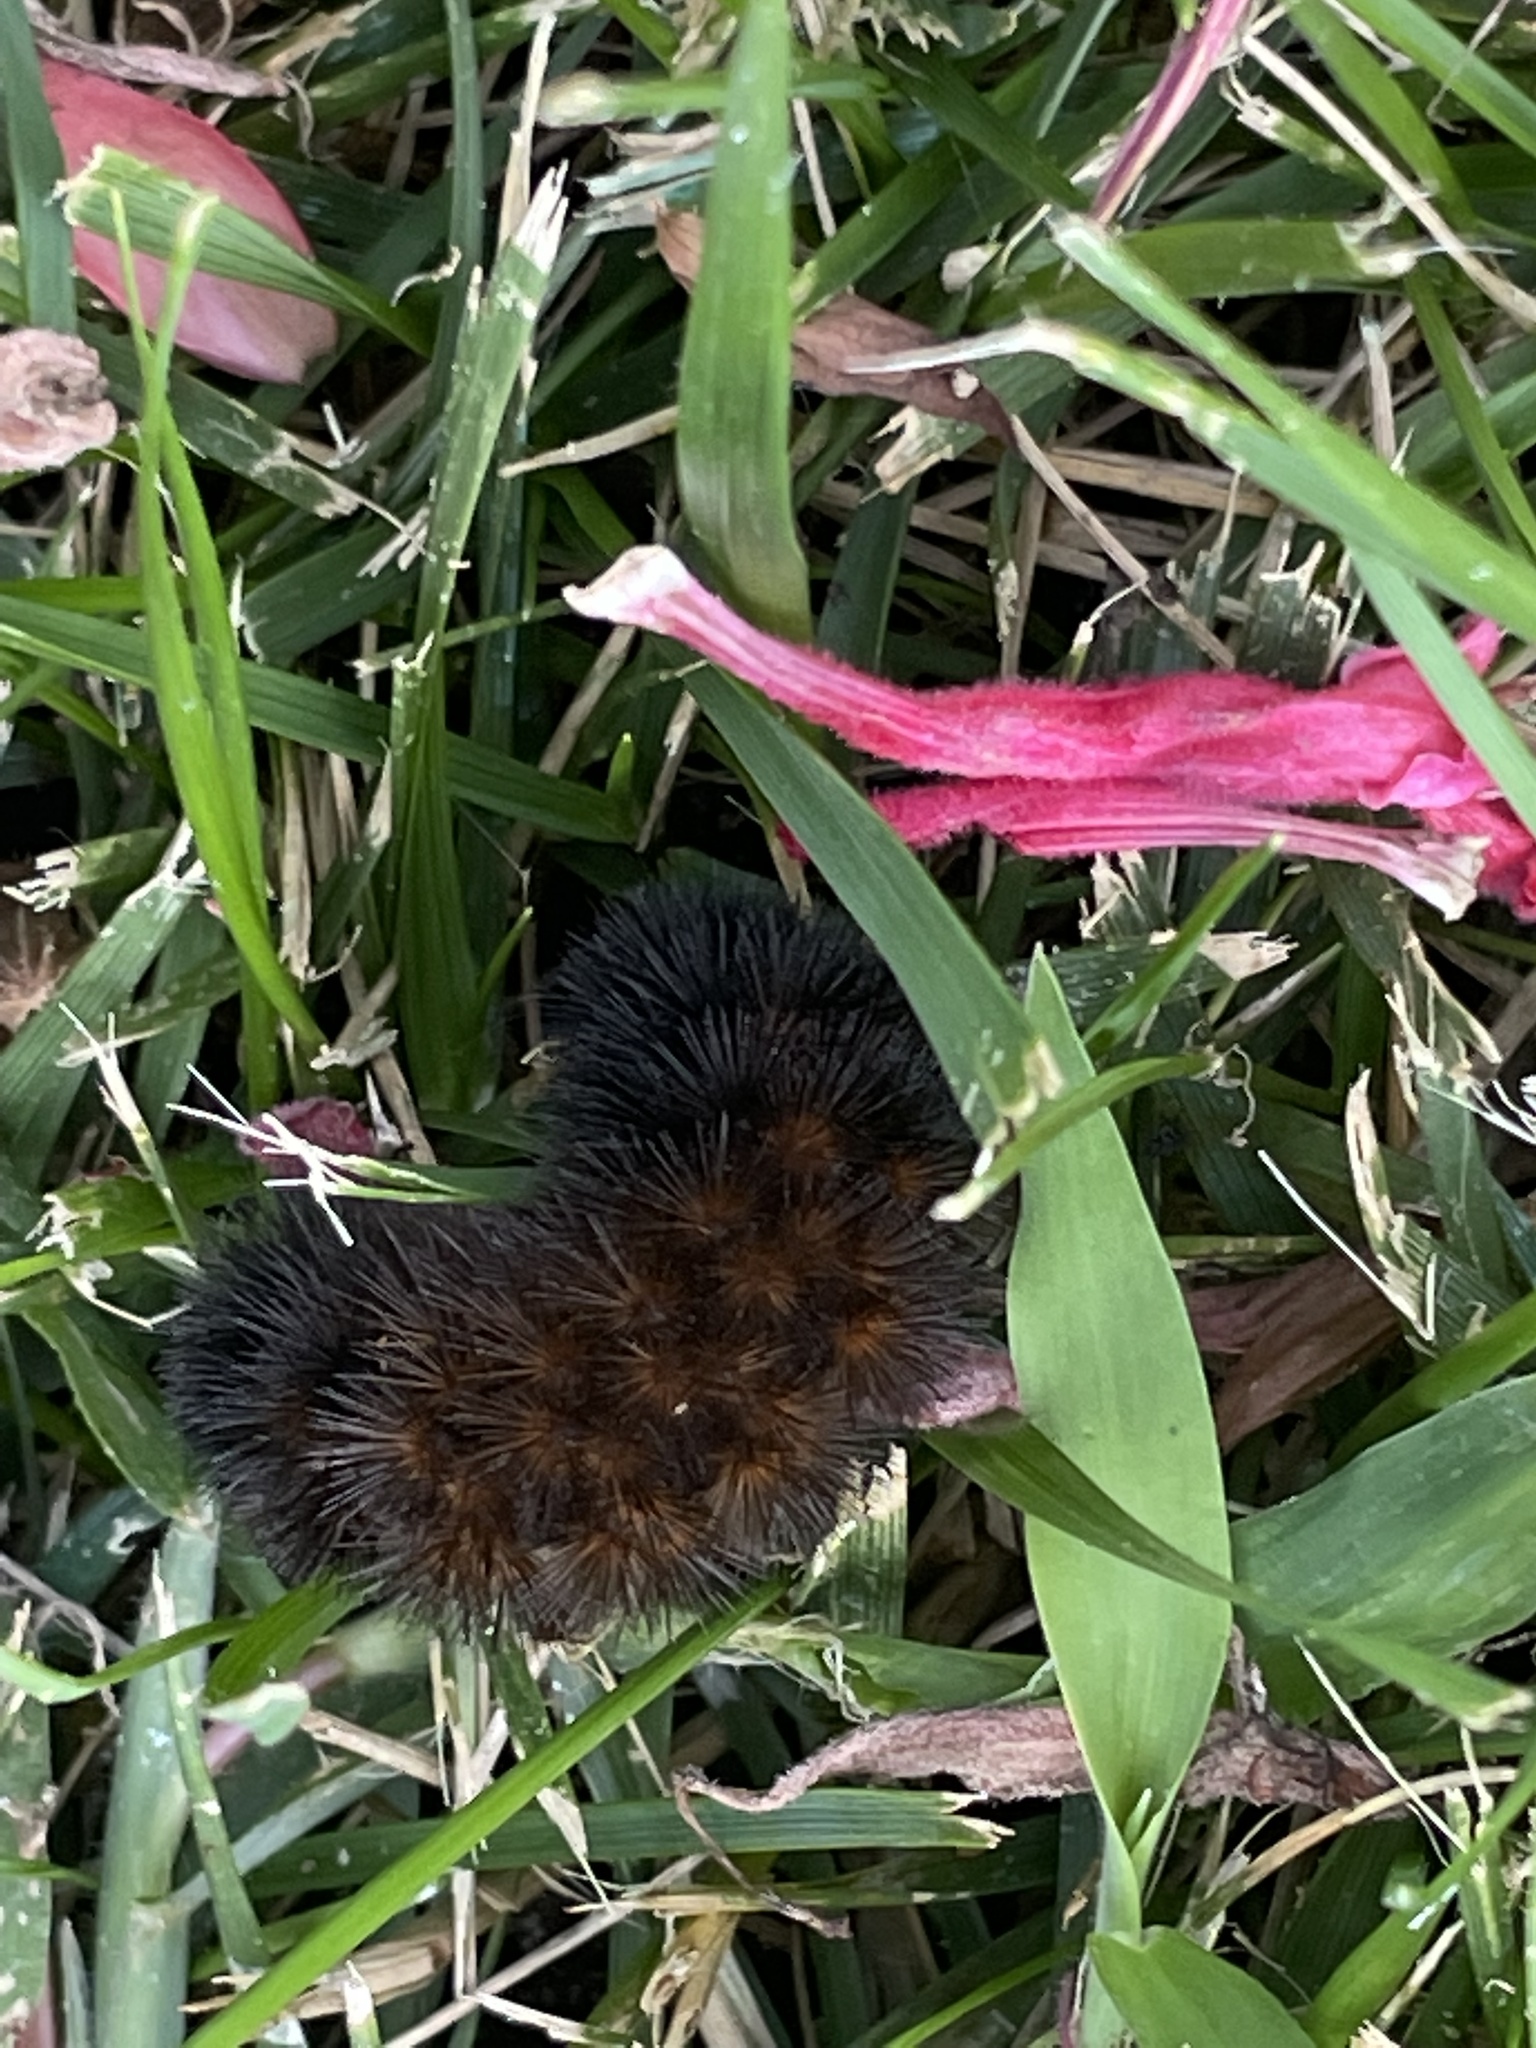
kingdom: Animalia
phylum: Arthropoda
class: Insecta
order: Lepidoptera
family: Erebidae
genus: Pyrrharctia
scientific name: Pyrrharctia isabella
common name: Isabella tiger moth
